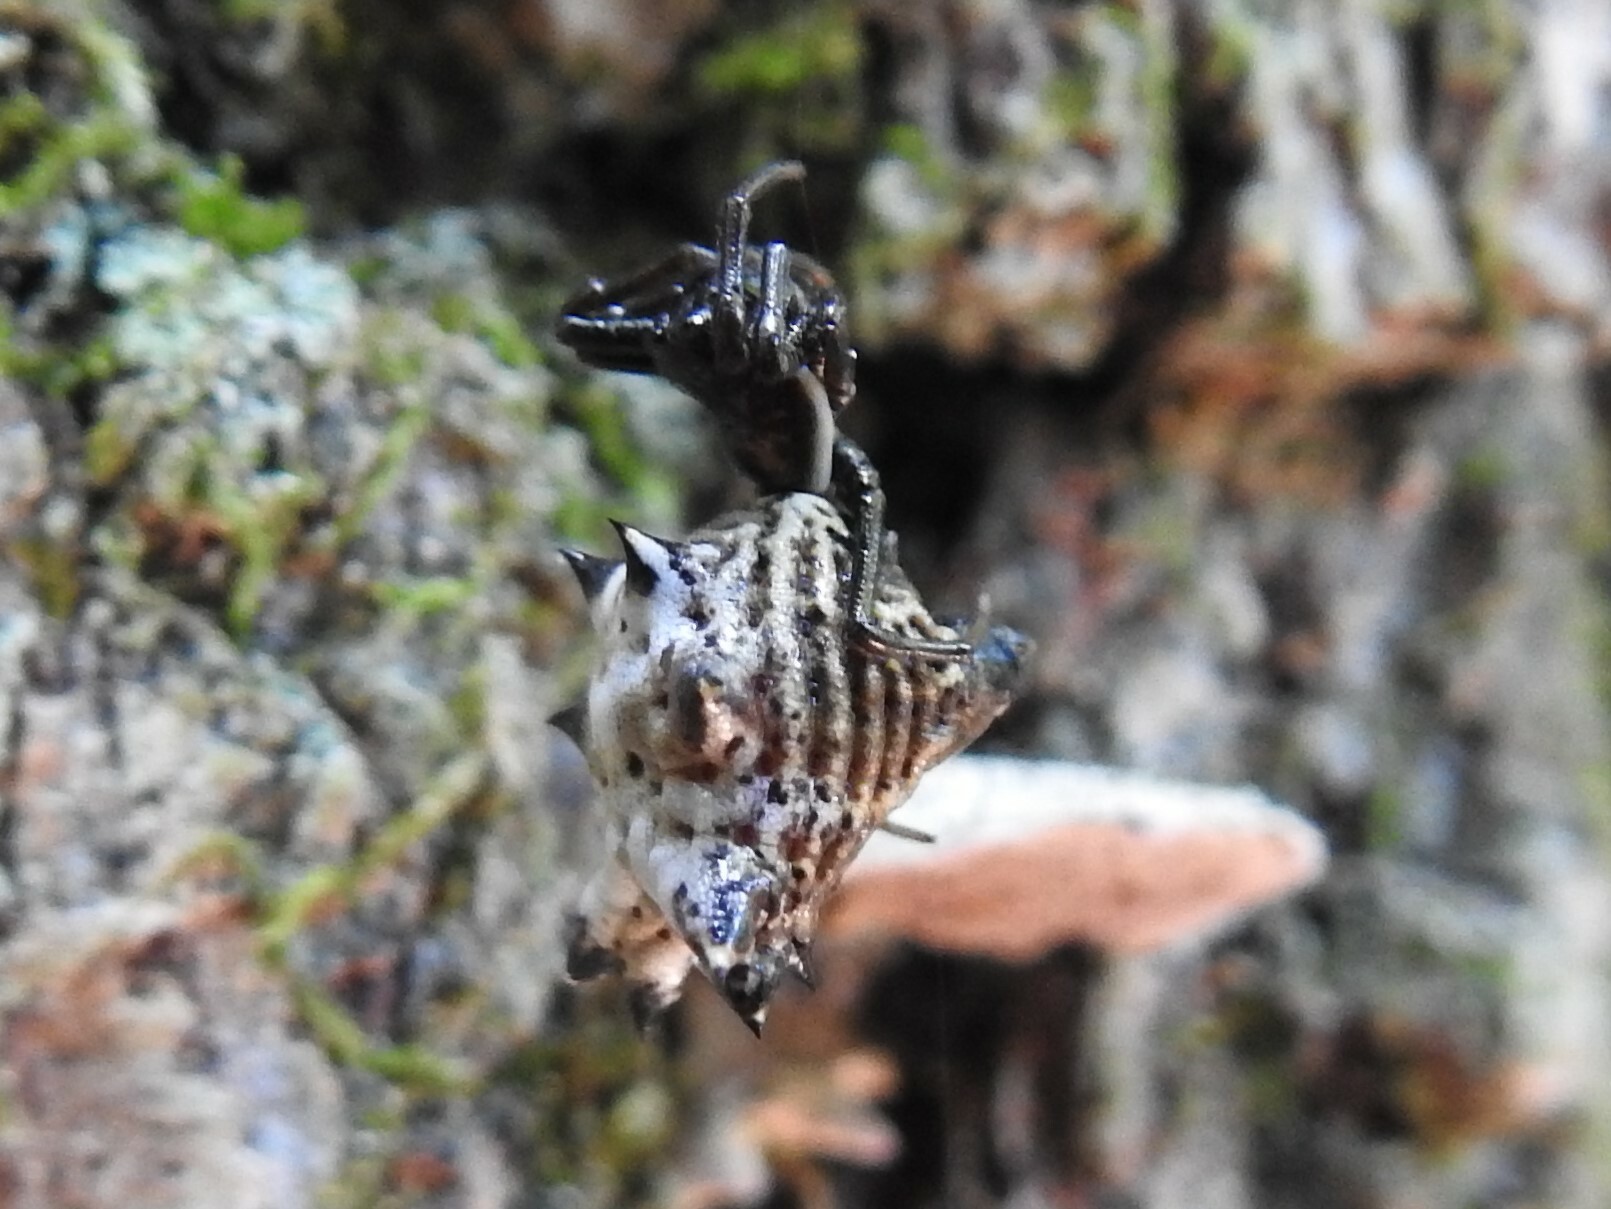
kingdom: Animalia
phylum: Arthropoda
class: Arachnida
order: Araneae
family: Araneidae
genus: Micrathena
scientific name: Micrathena gracilis
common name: Orb weavers
